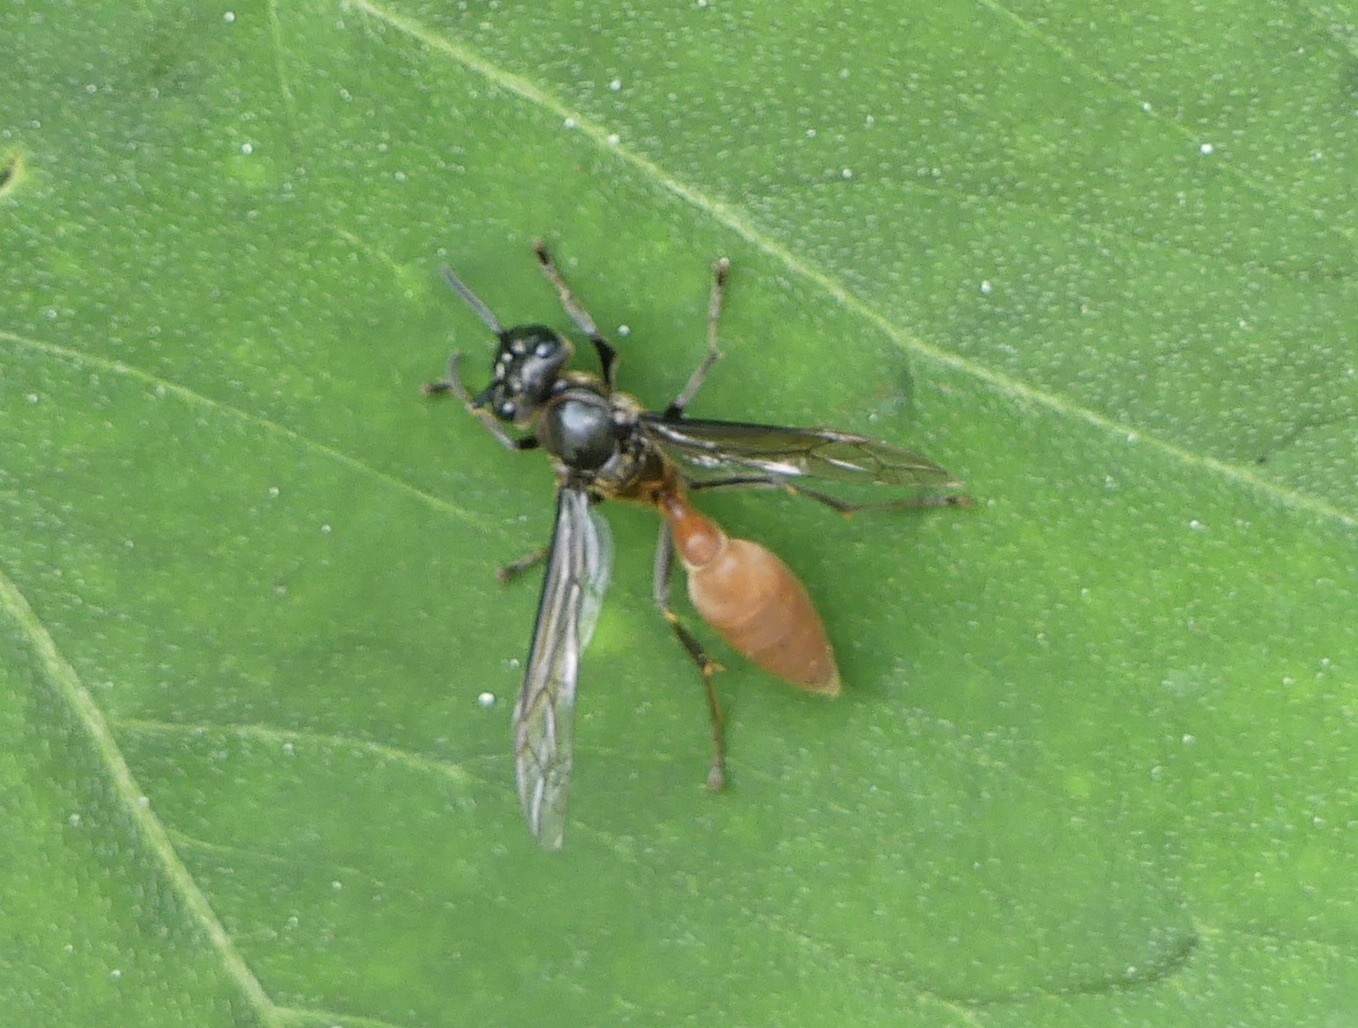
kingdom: Animalia
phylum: Arthropoda
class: Insecta
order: Hymenoptera
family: Eumenidae
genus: Polybia
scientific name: Polybia dimidiata
